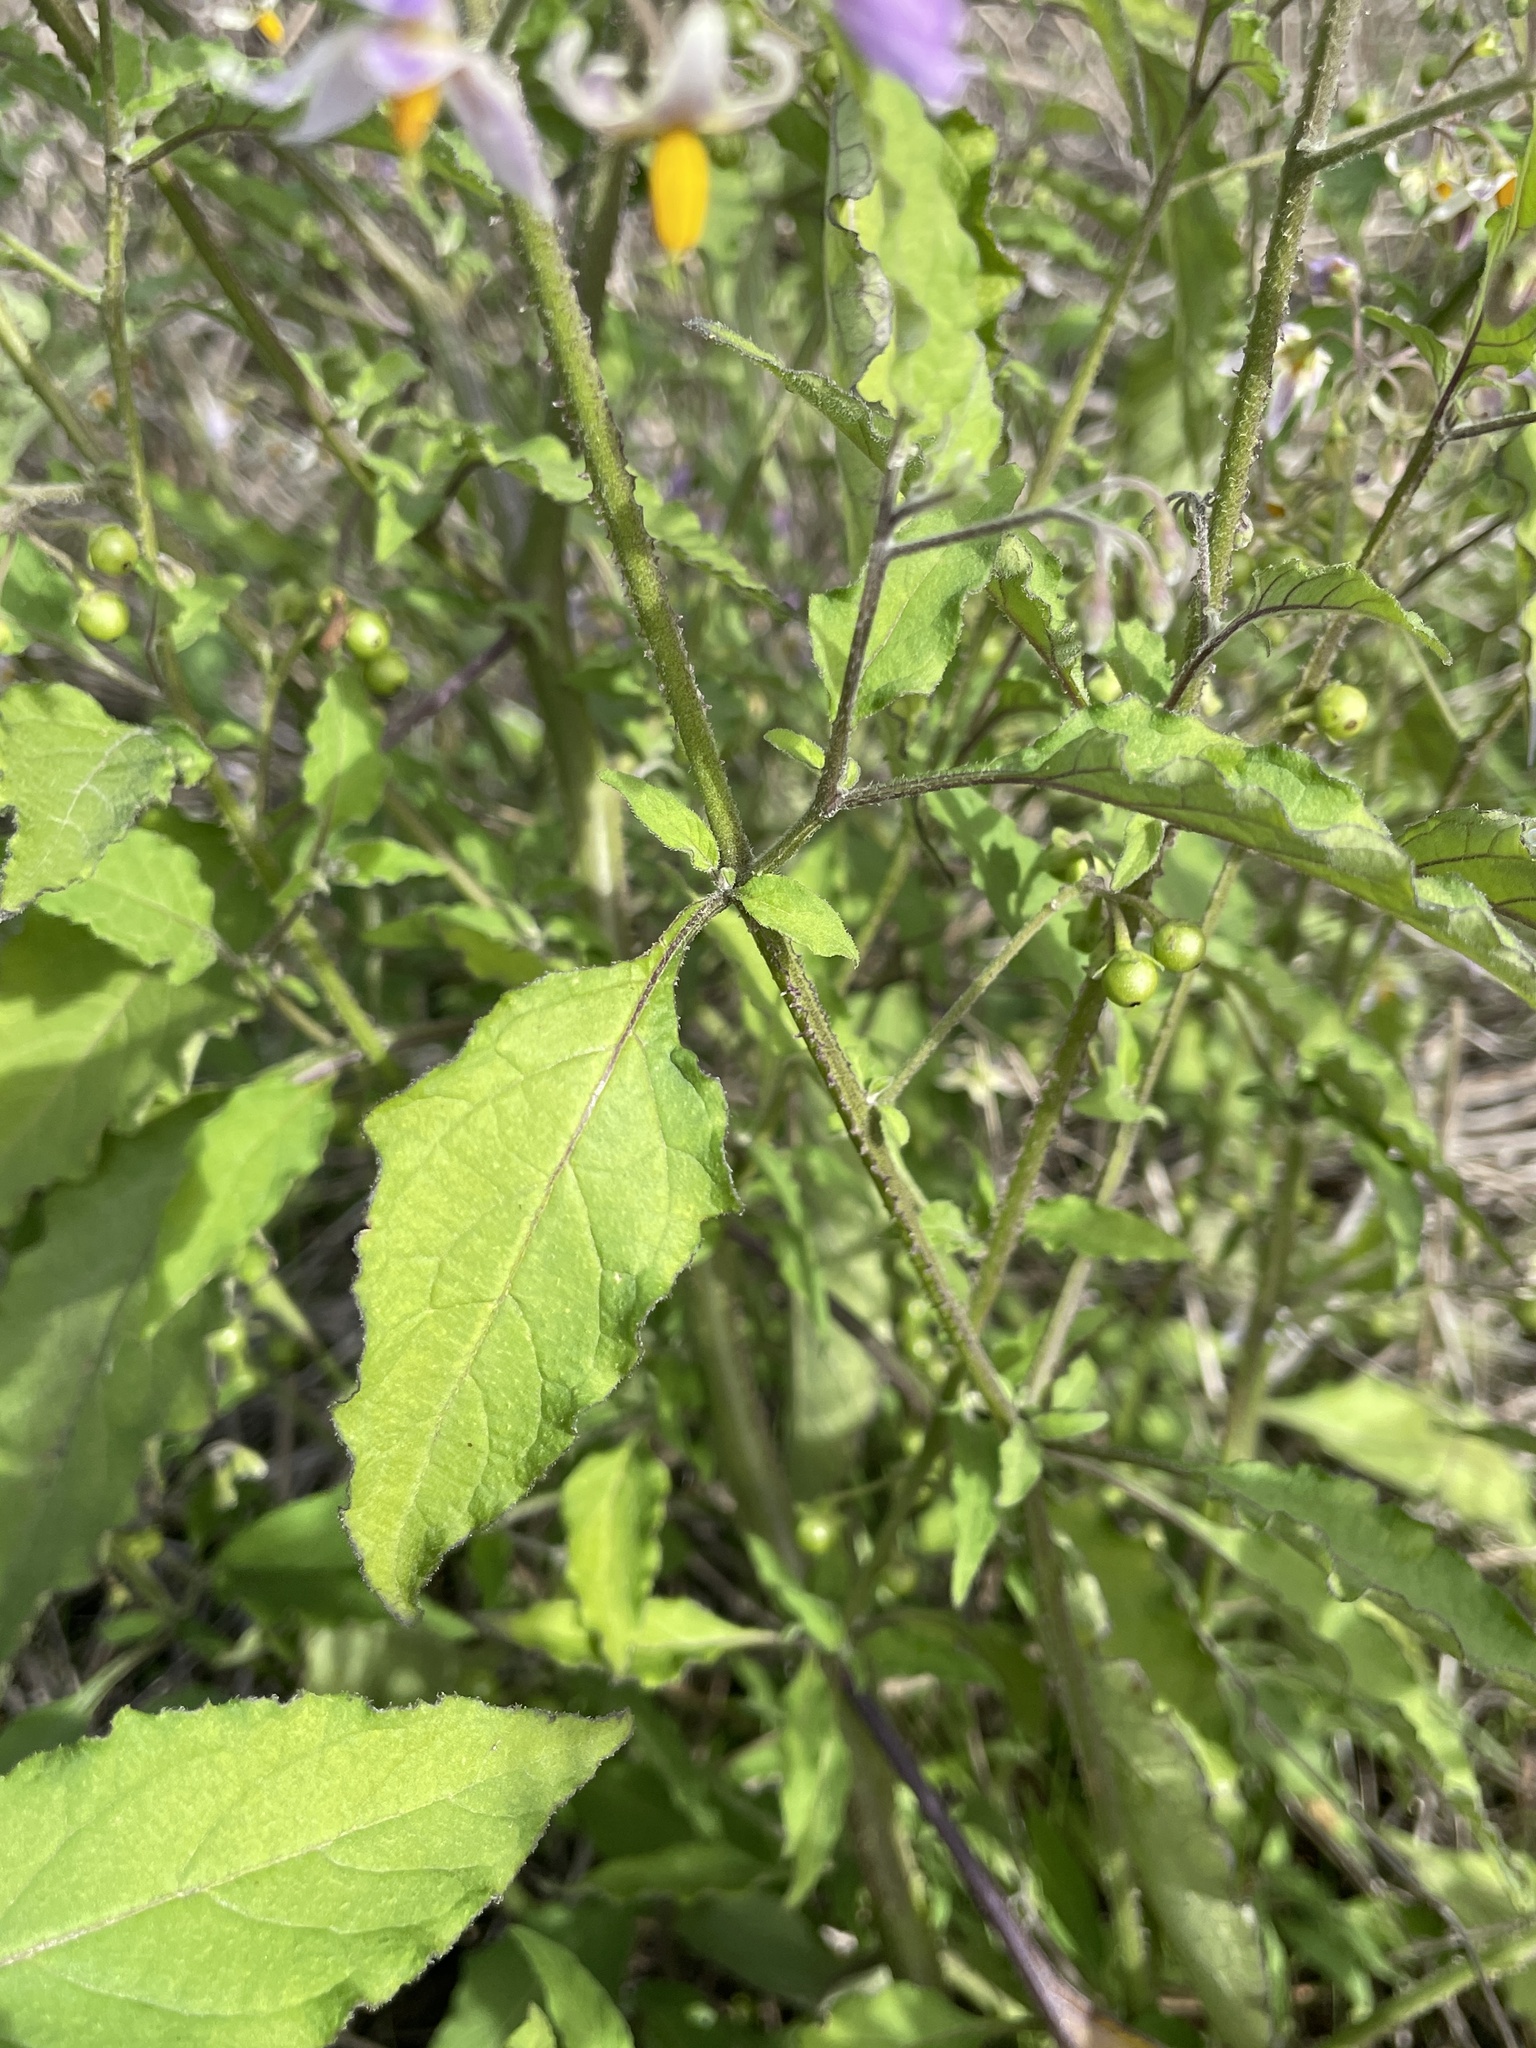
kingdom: Plantae
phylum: Tracheophyta
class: Magnoliopsida
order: Solanales
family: Solanaceae
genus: Solanum
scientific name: Solanum douglasii
